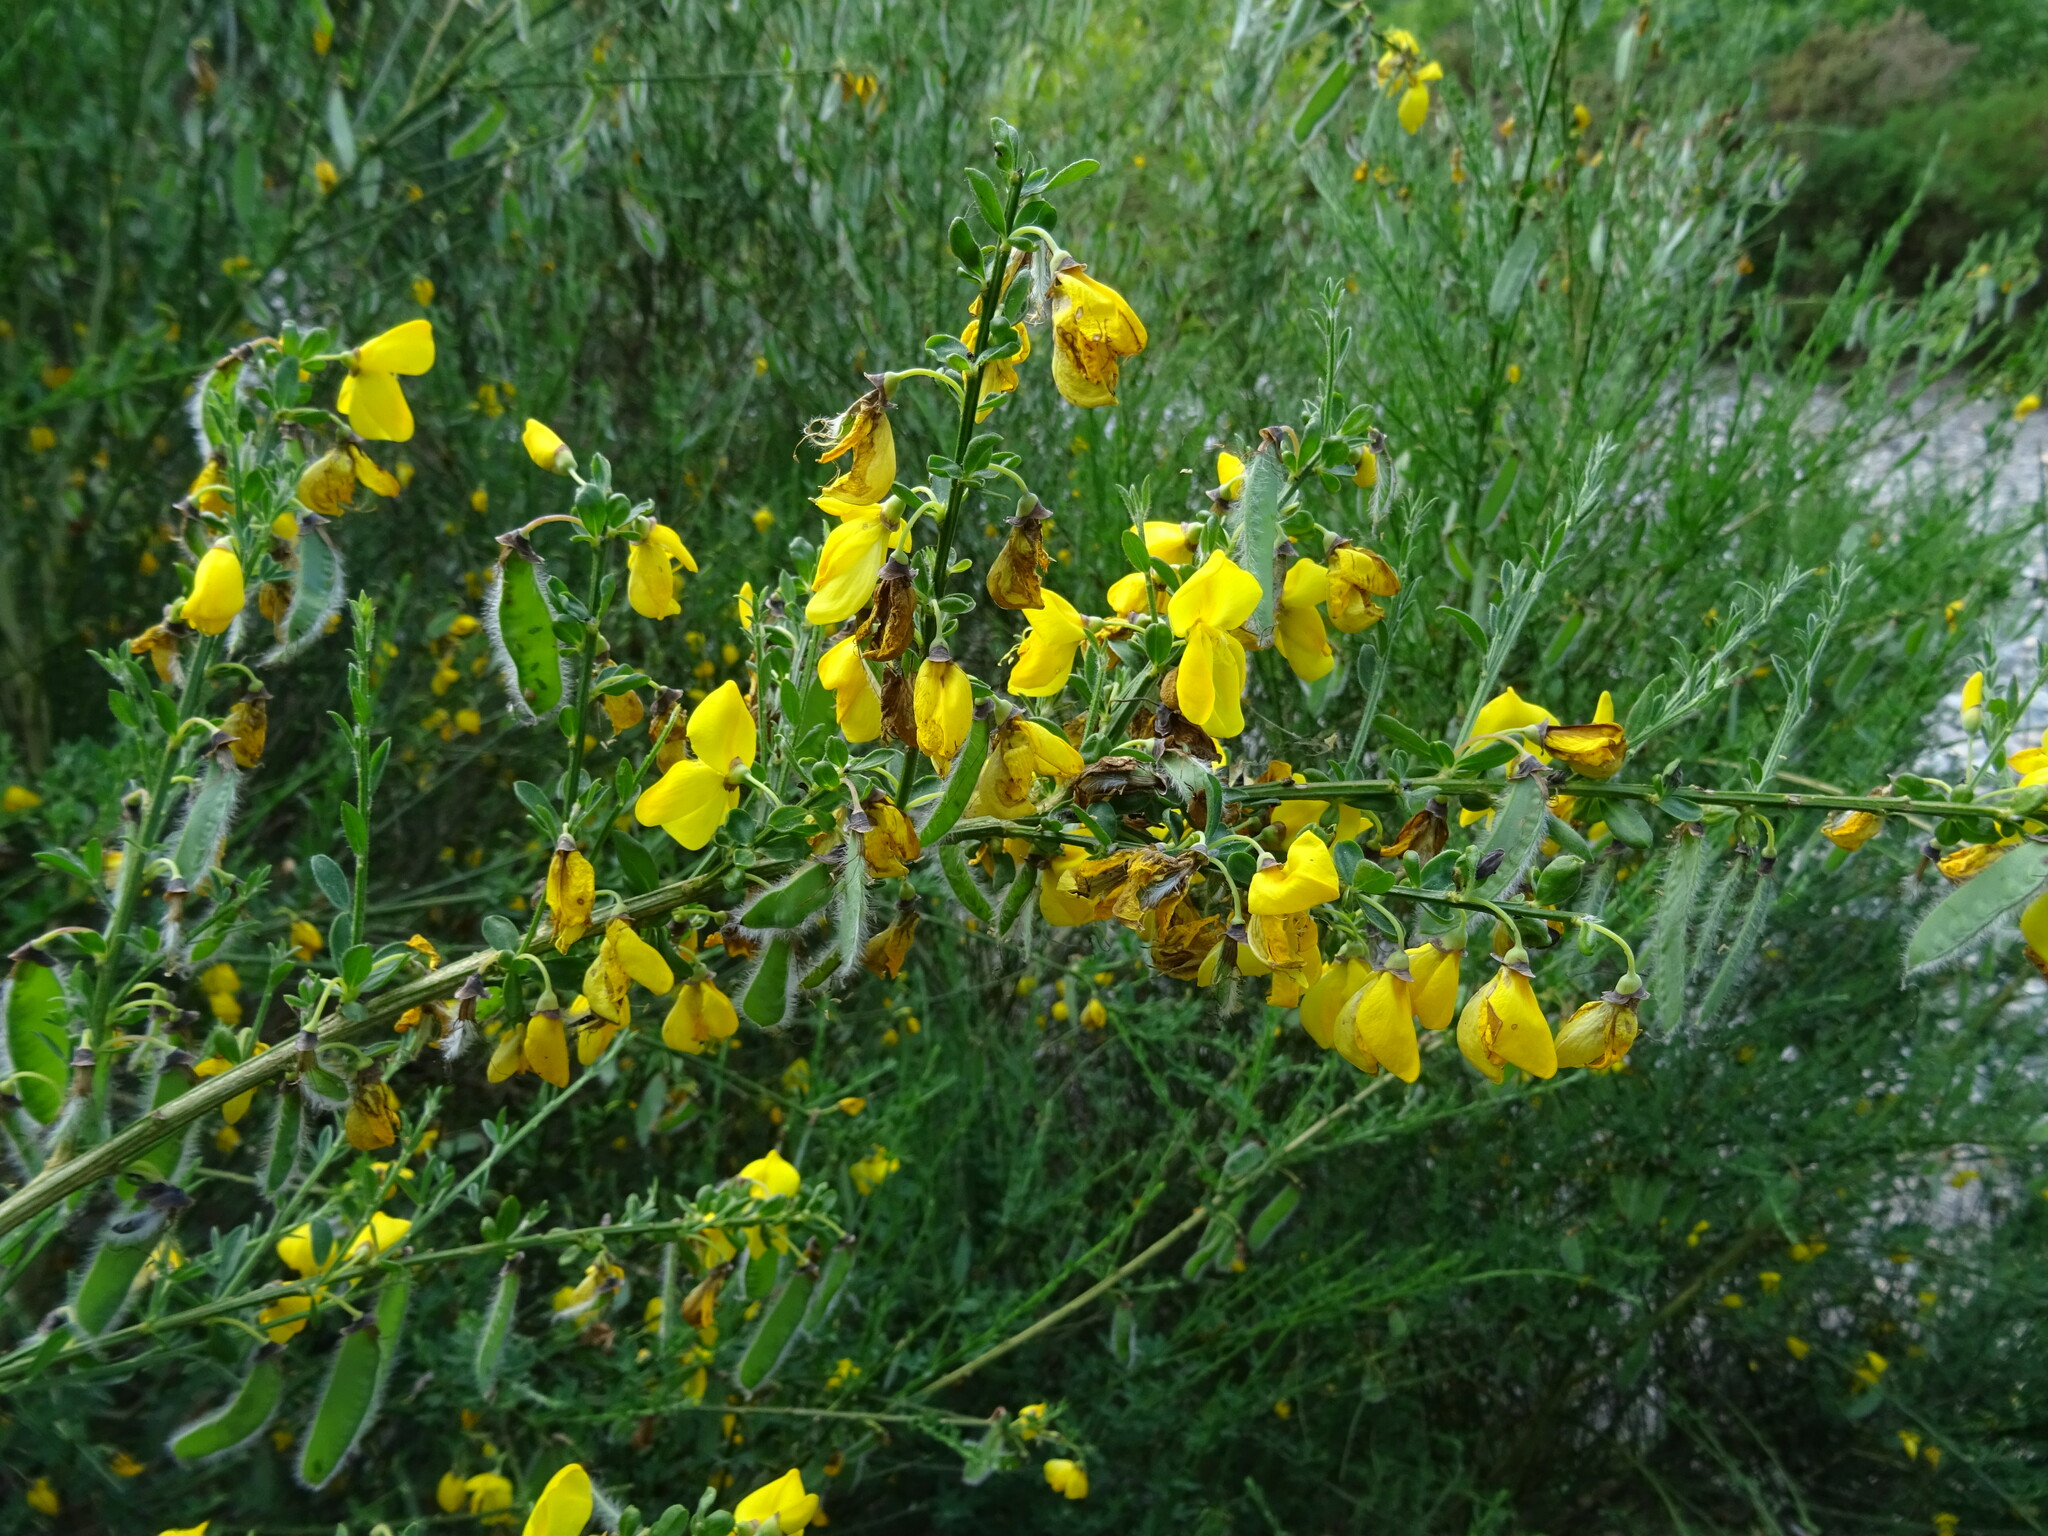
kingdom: Plantae
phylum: Tracheophyta
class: Magnoliopsida
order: Fabales
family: Fabaceae
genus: Cytisus
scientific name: Cytisus scoparius
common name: Scotch broom
